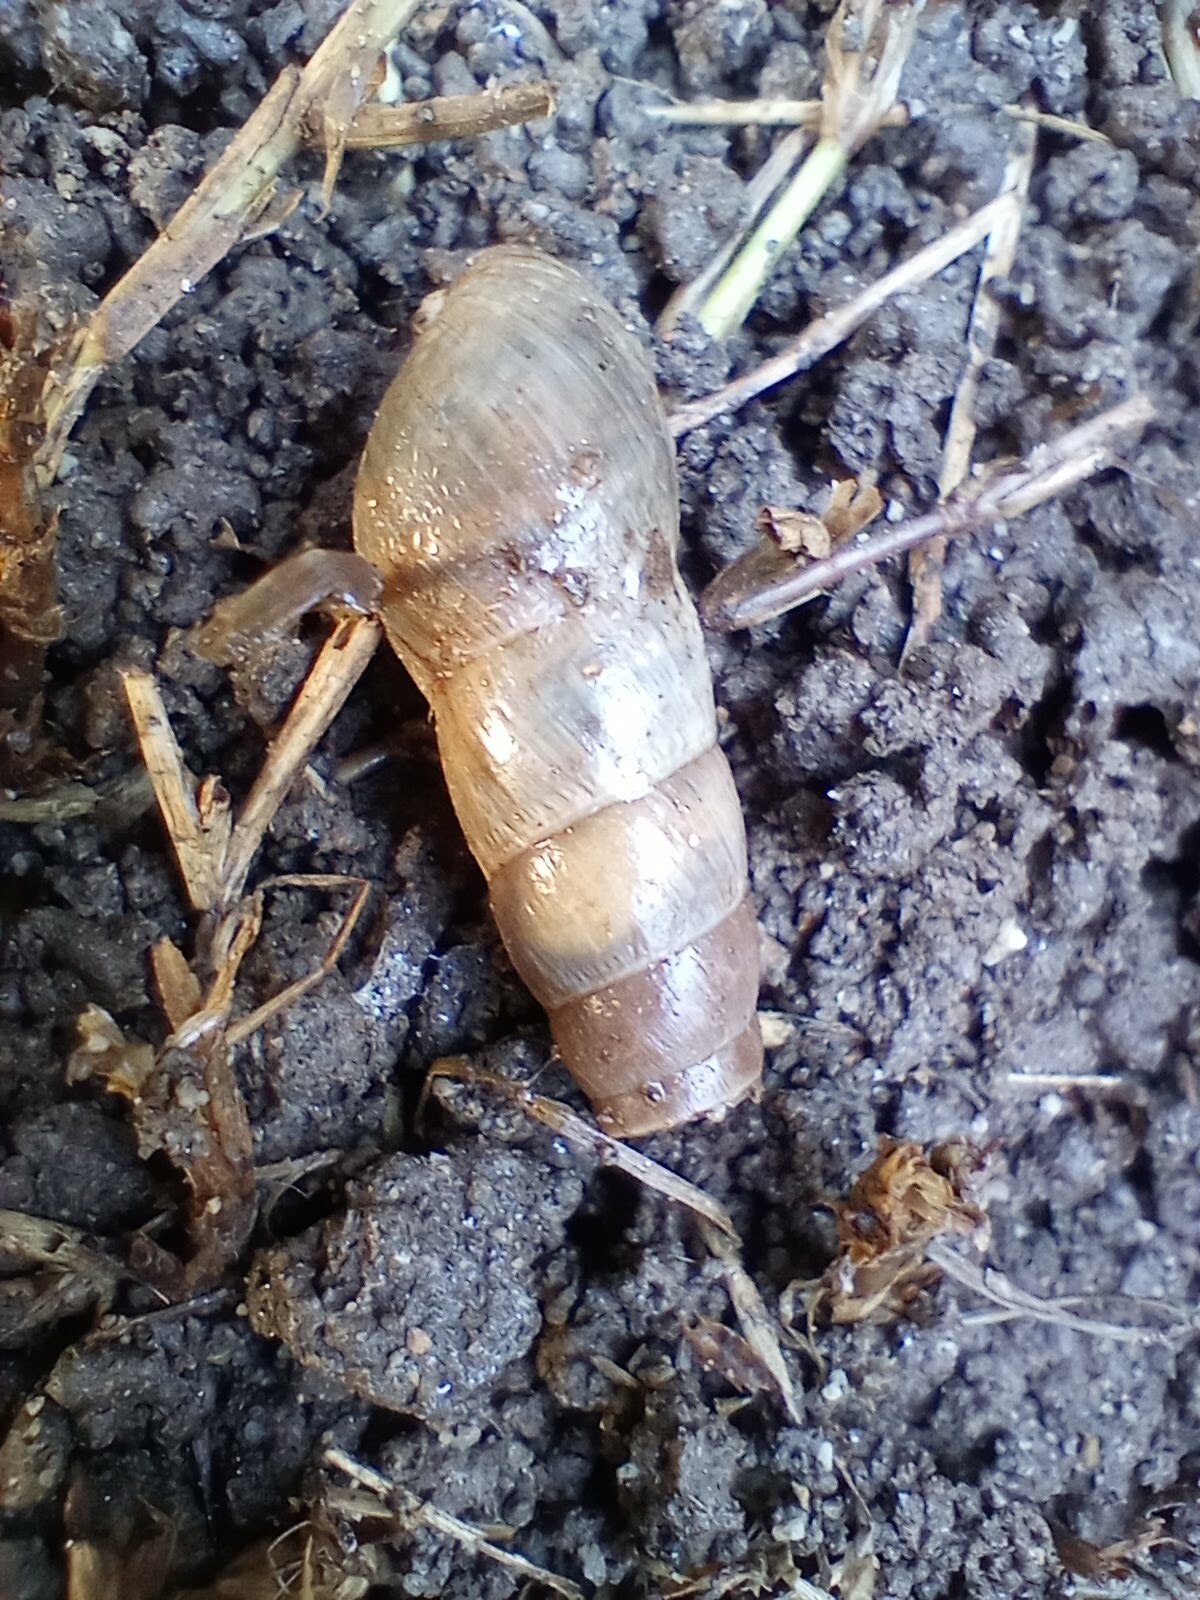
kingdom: Animalia
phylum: Mollusca
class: Gastropoda
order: Stylommatophora
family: Achatinidae
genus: Rumina
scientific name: Rumina decollata
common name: Decollate snail
